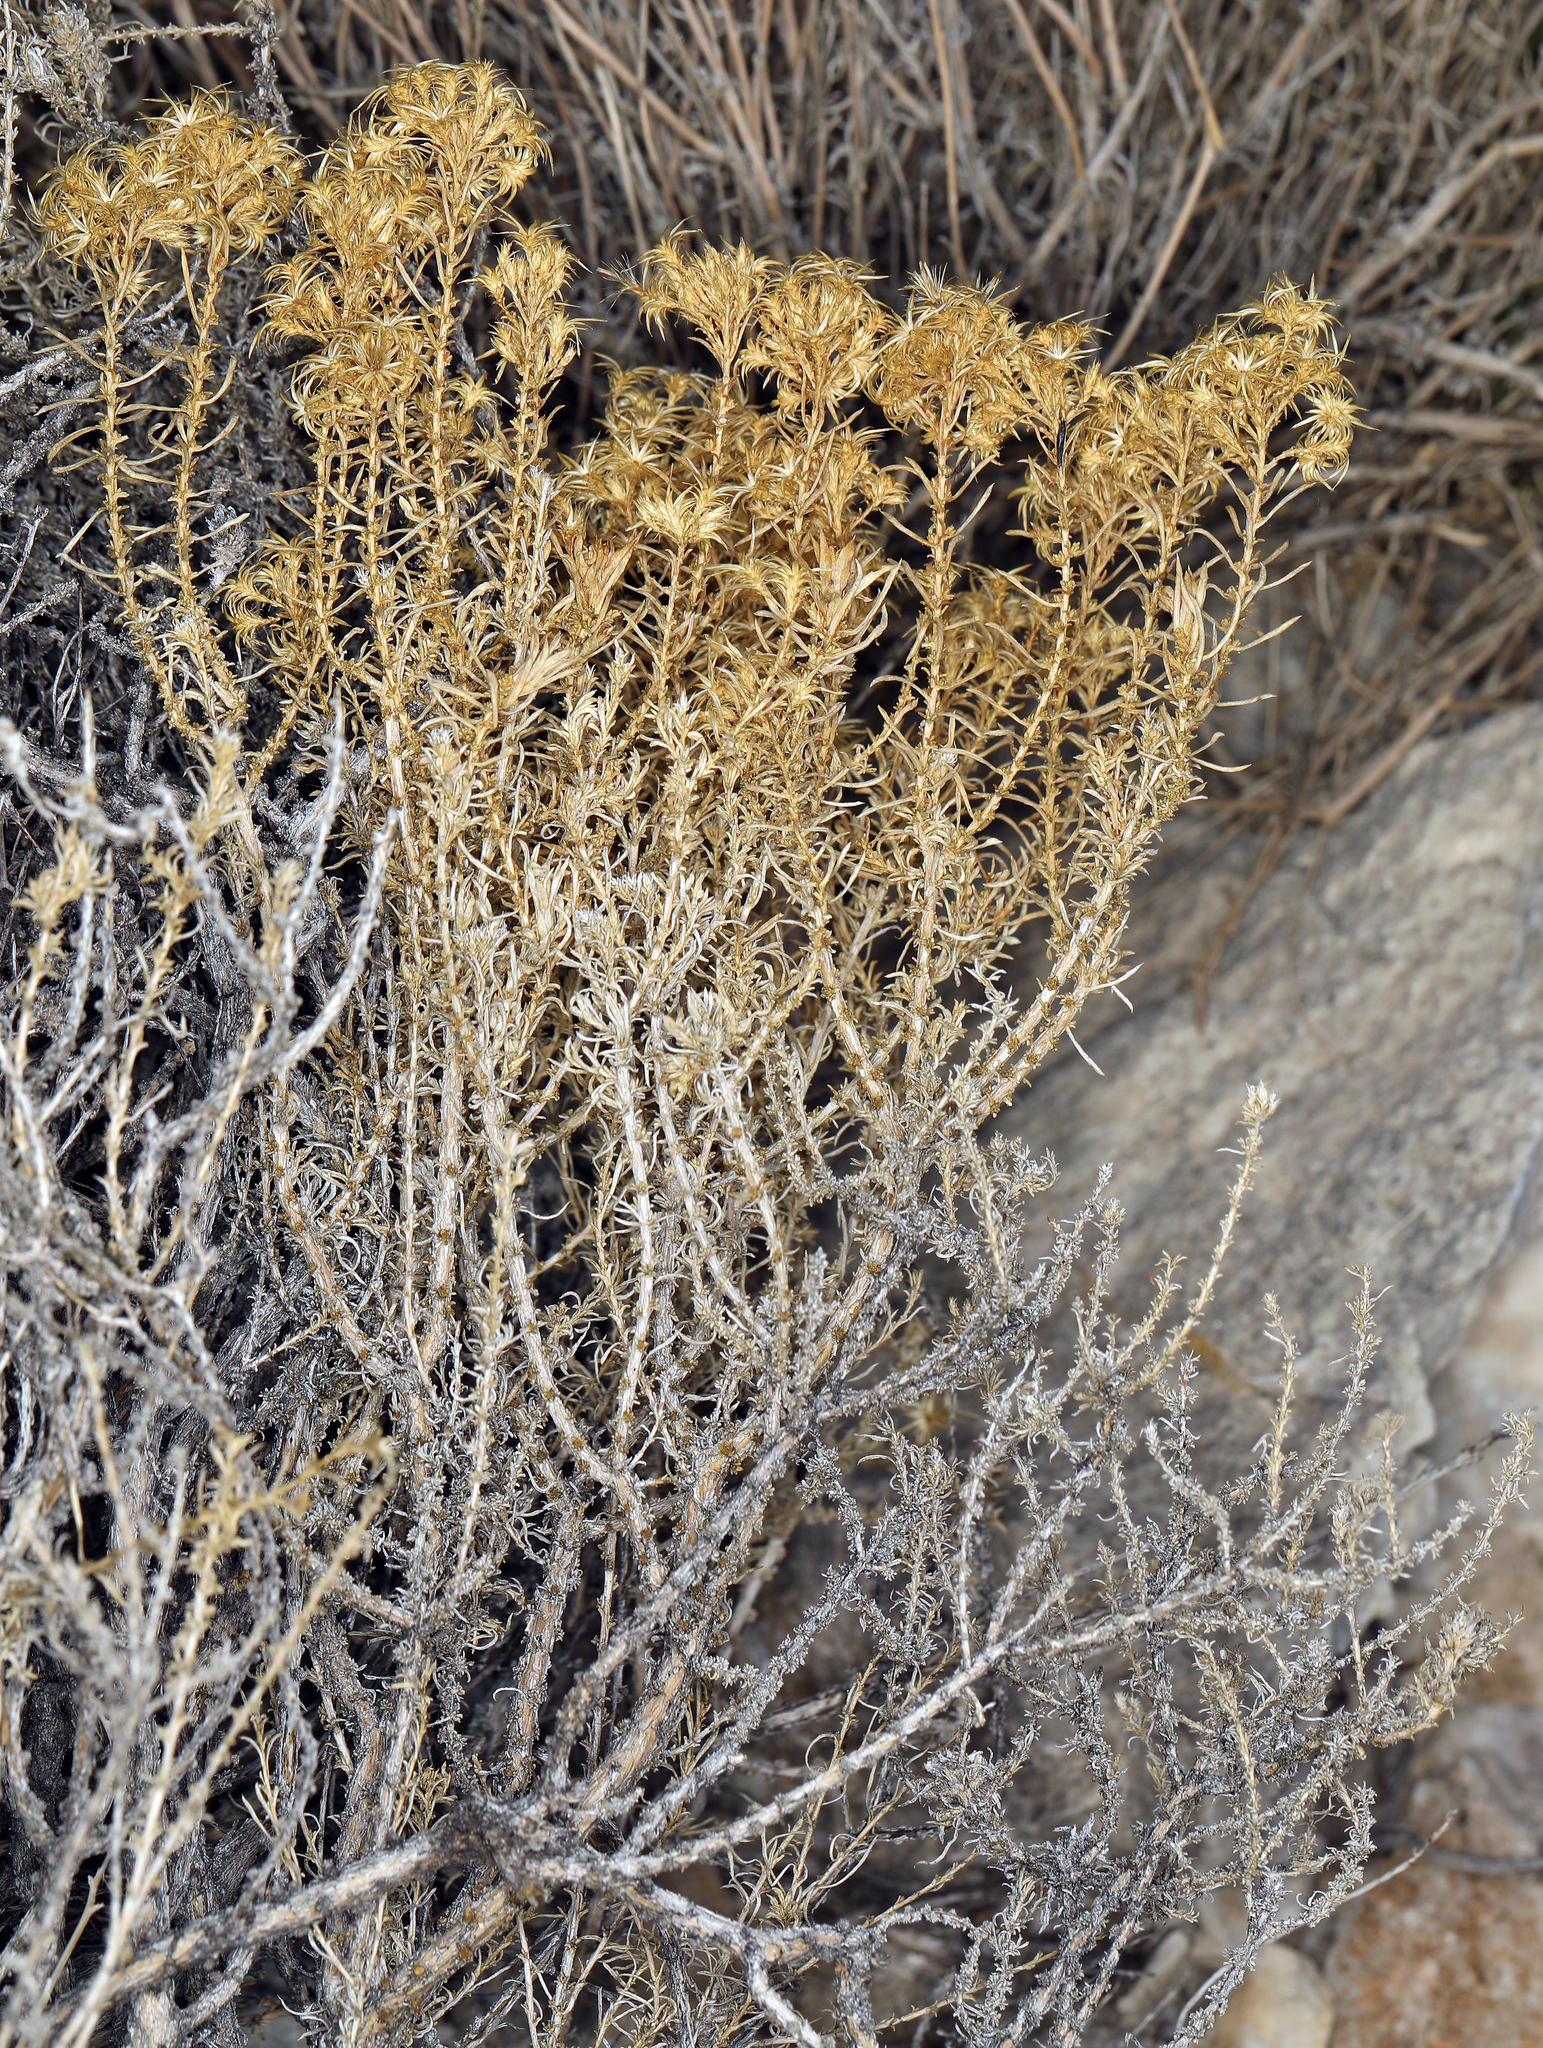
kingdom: Plantae
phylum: Tracheophyta
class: Magnoliopsida
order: Asterales
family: Asteraceae
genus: Ericameria
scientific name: Ericameria nana
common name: Dwarf goldenbush
